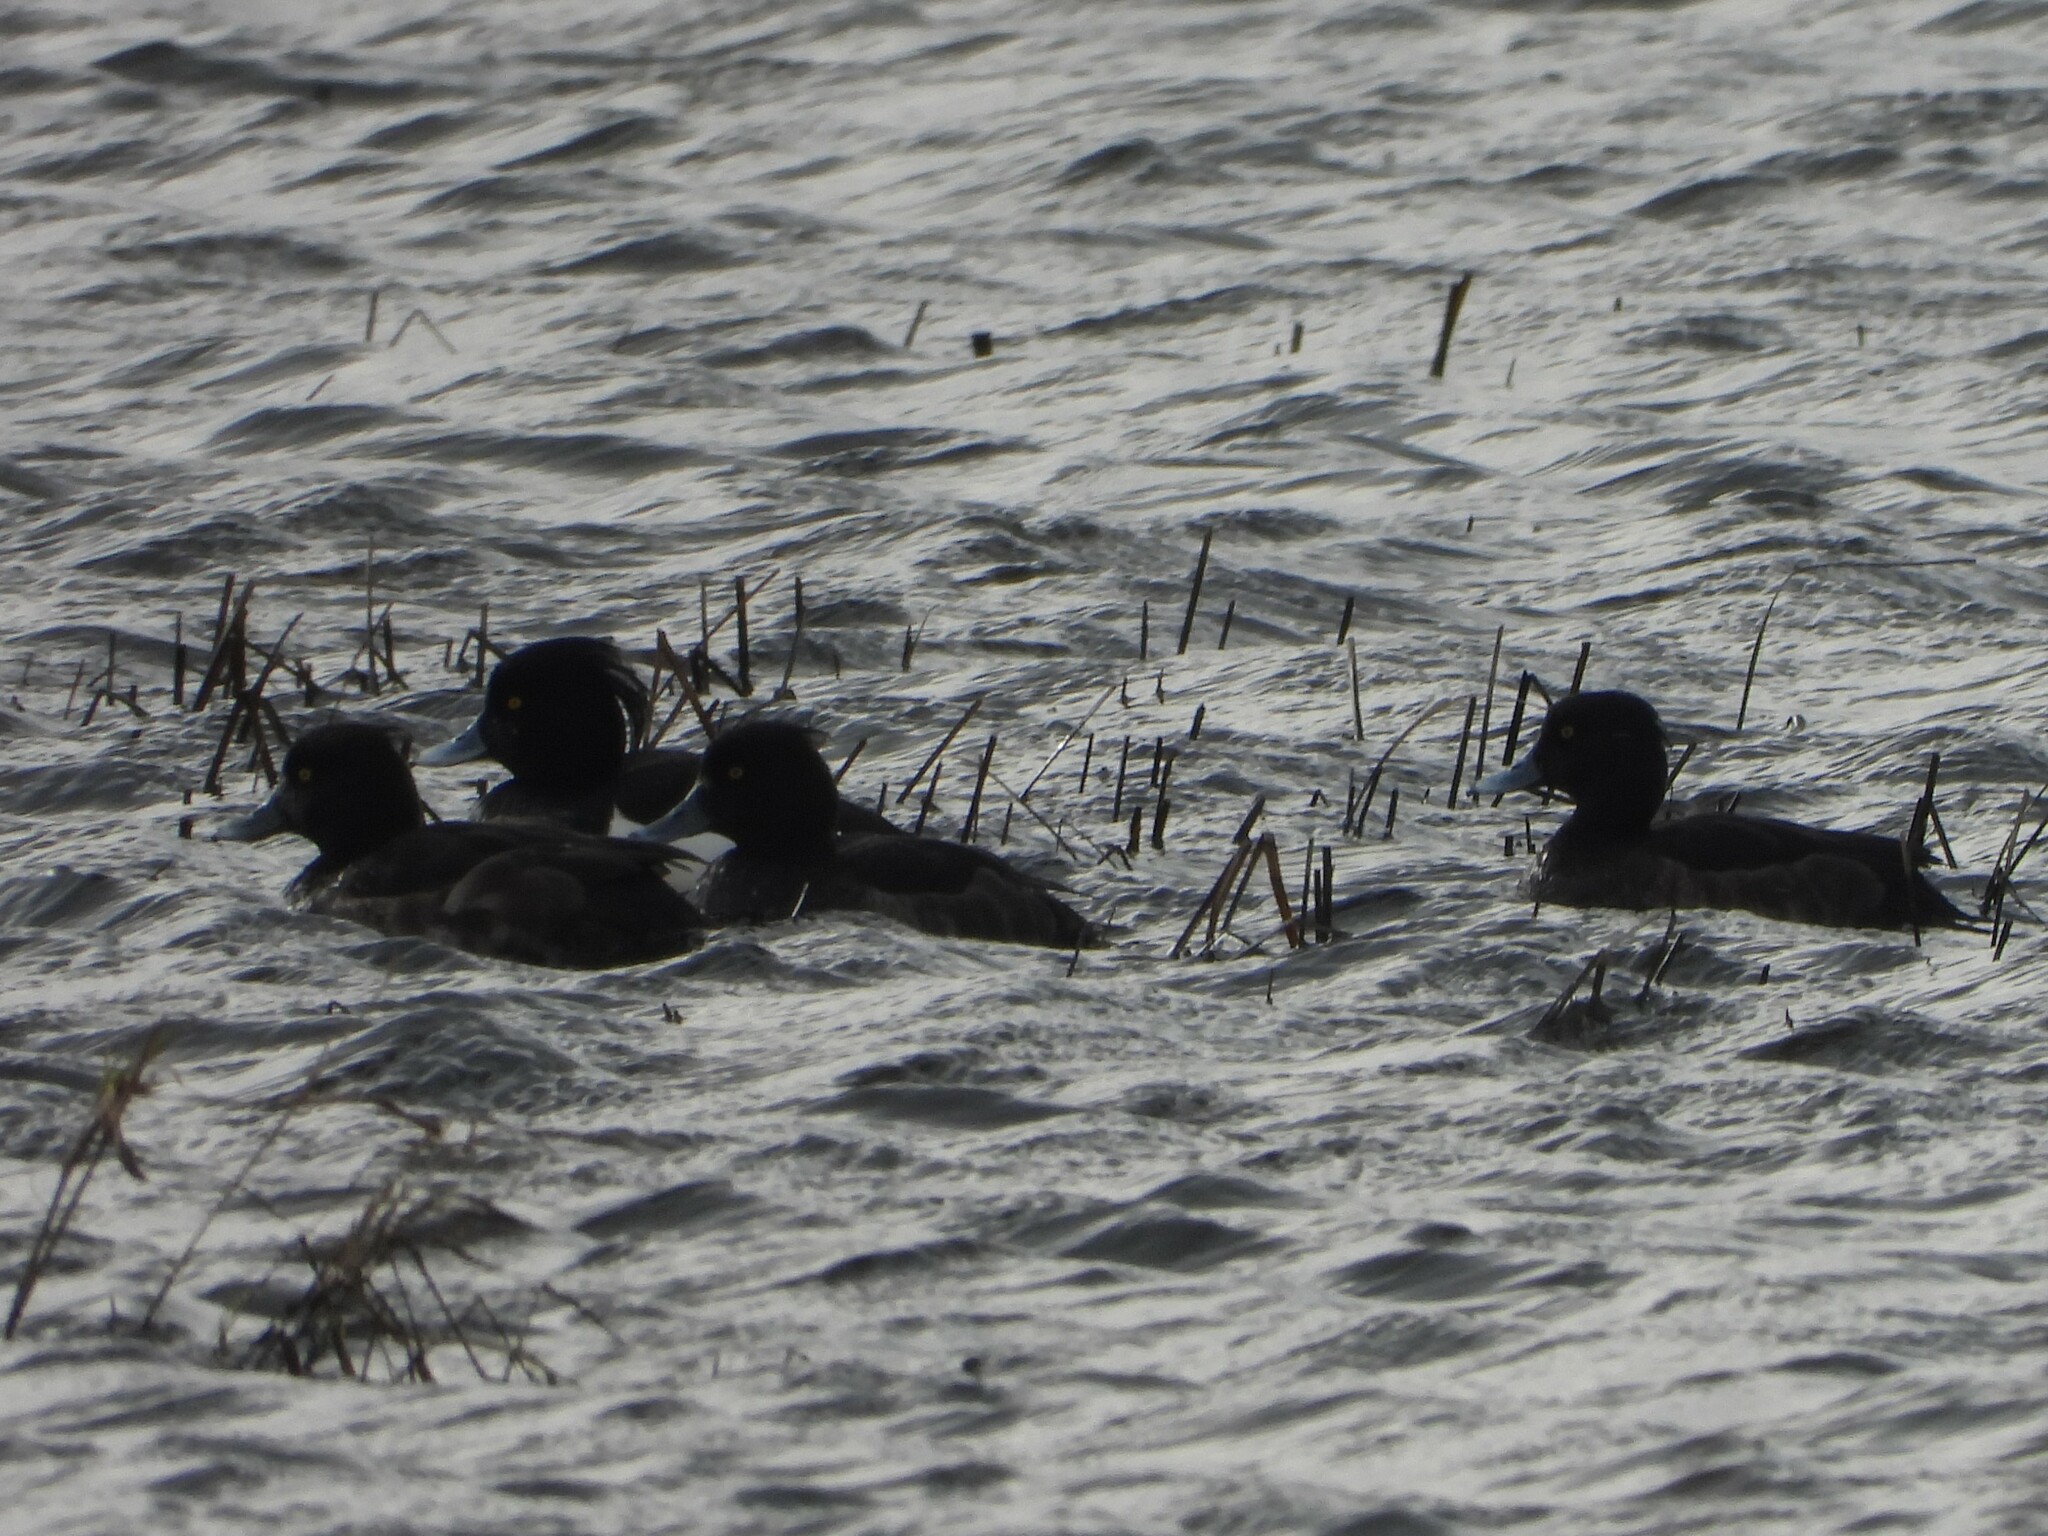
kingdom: Animalia
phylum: Chordata
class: Aves
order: Anseriformes
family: Anatidae
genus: Aythya
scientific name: Aythya fuligula
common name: Tufted duck
